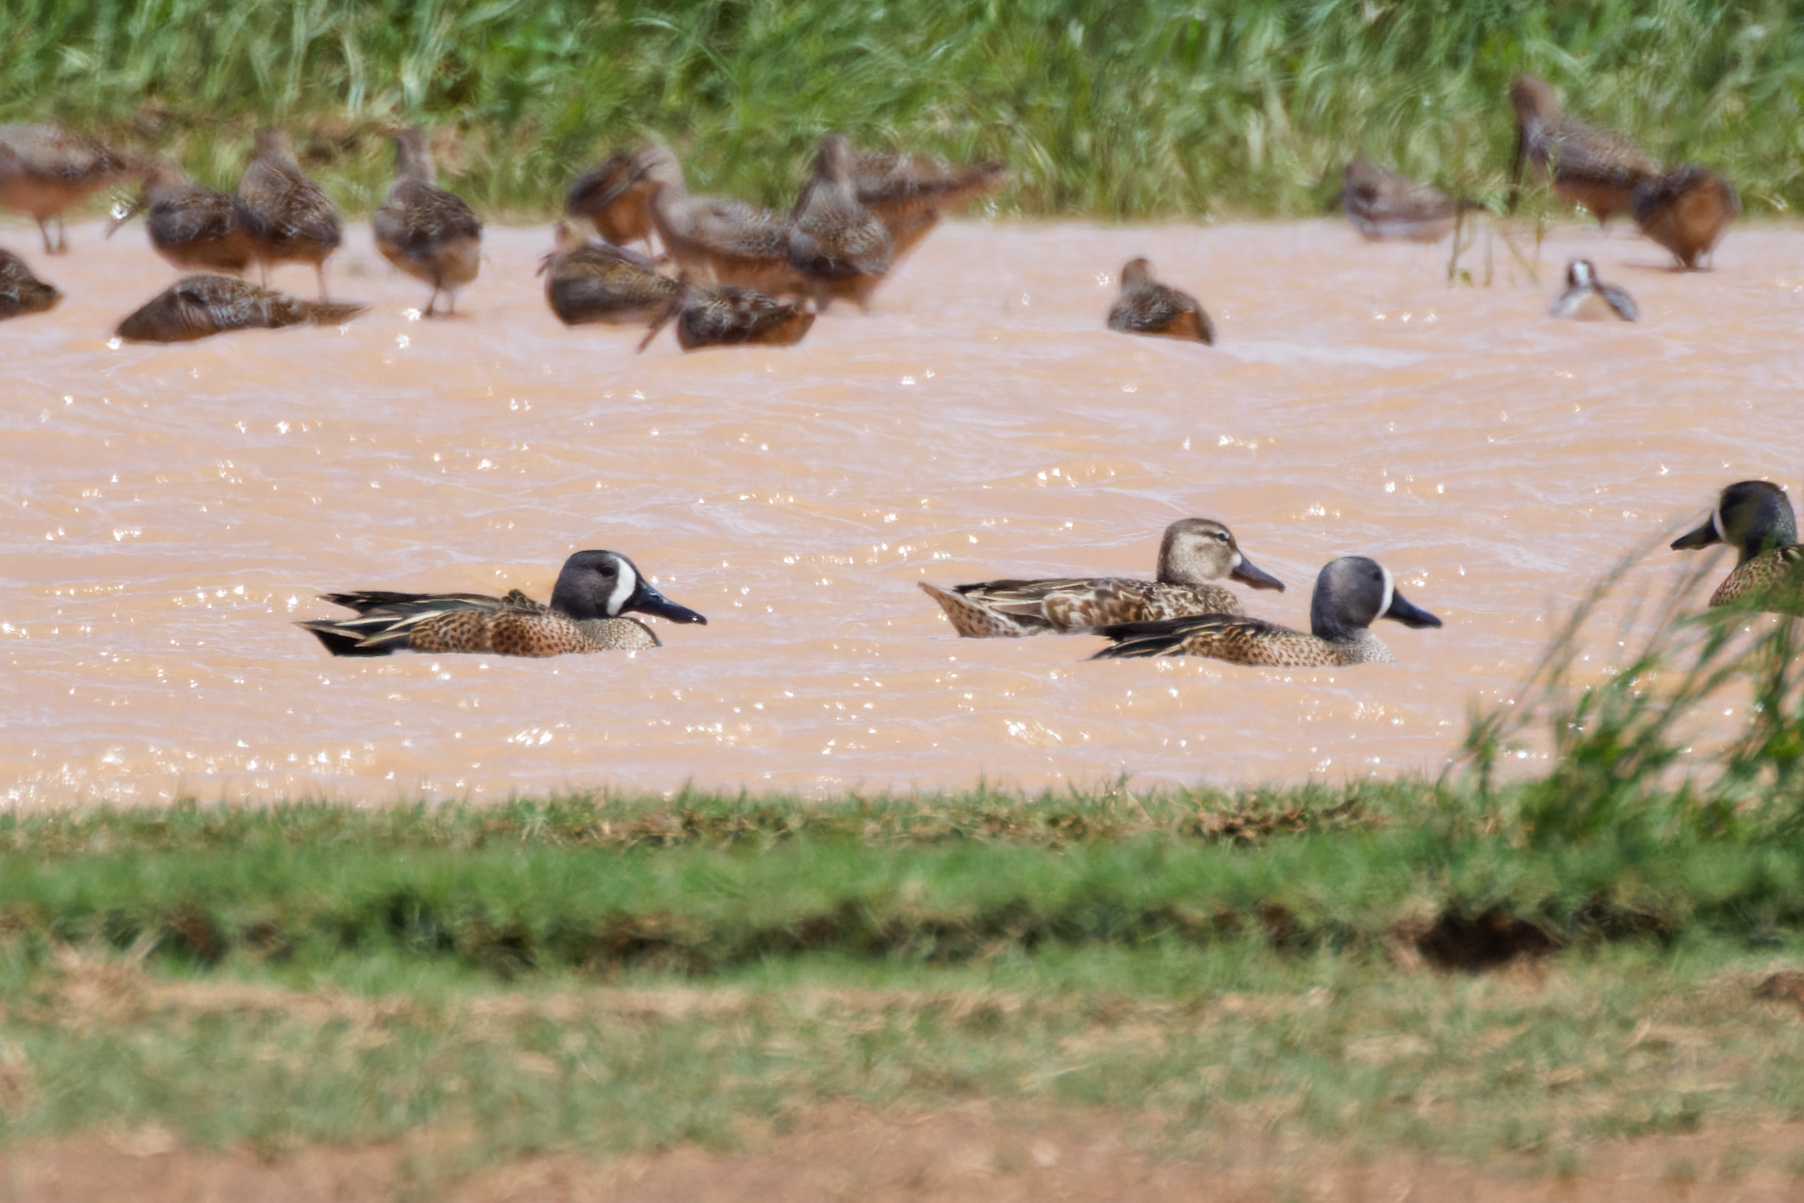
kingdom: Animalia
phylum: Chordata
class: Aves
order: Anseriformes
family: Anatidae
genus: Spatula
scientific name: Spatula discors
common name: Blue-winged teal
